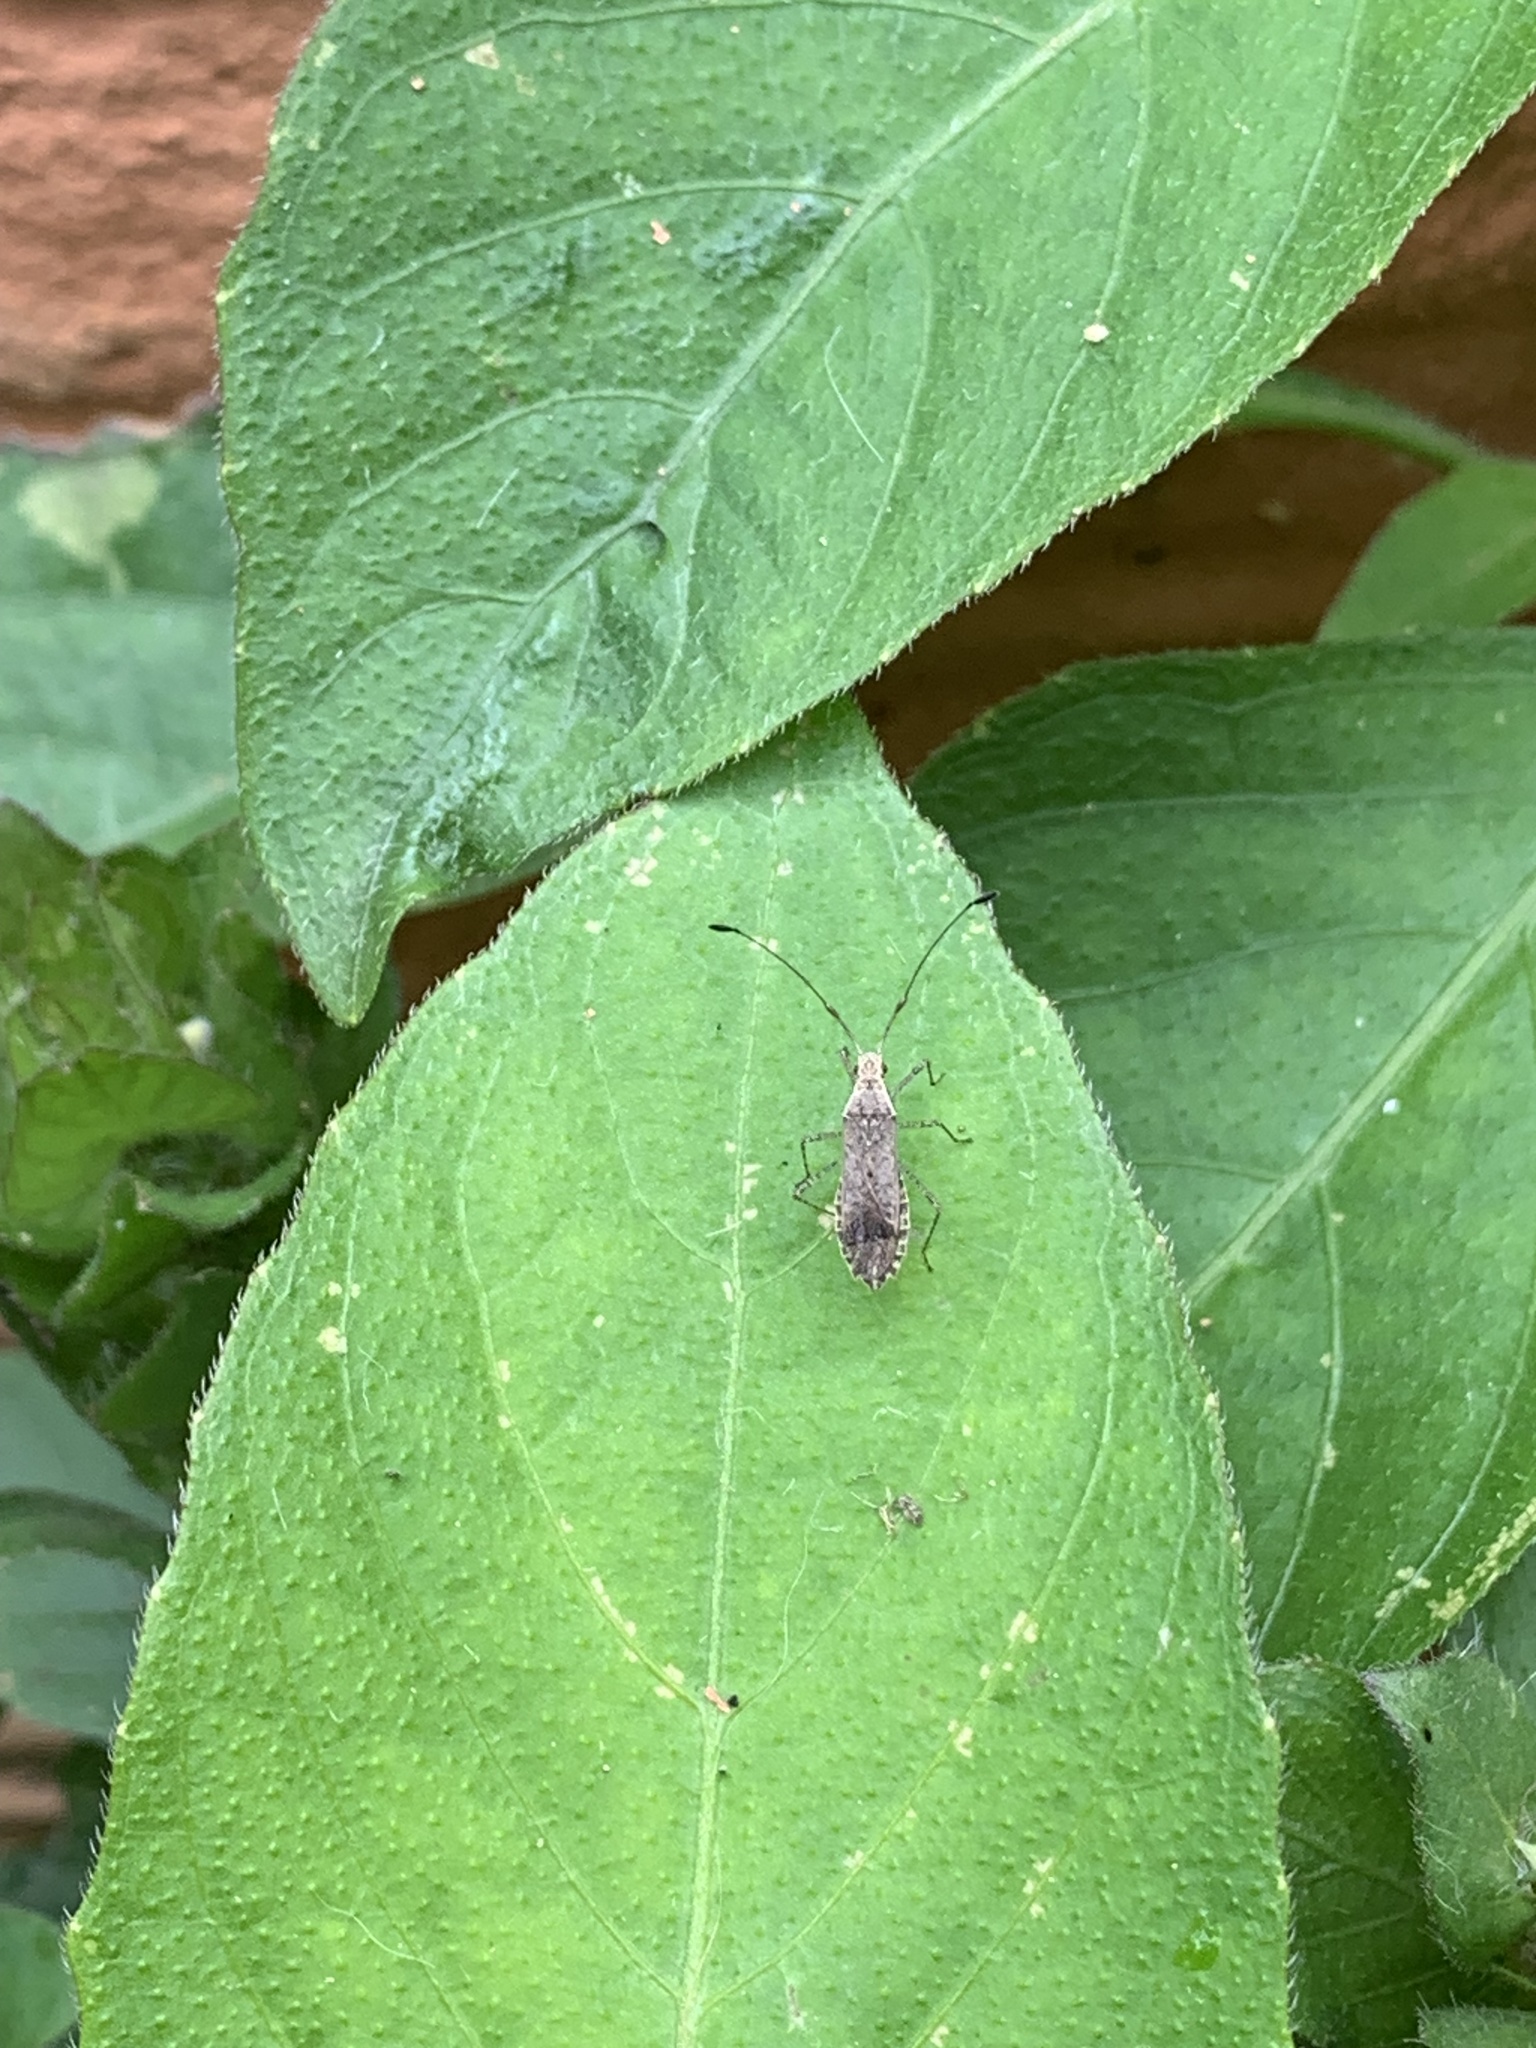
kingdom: Animalia
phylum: Arthropoda
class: Insecta
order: Hemiptera
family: Coreidae
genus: Madura
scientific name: Madura fusco-clavata
